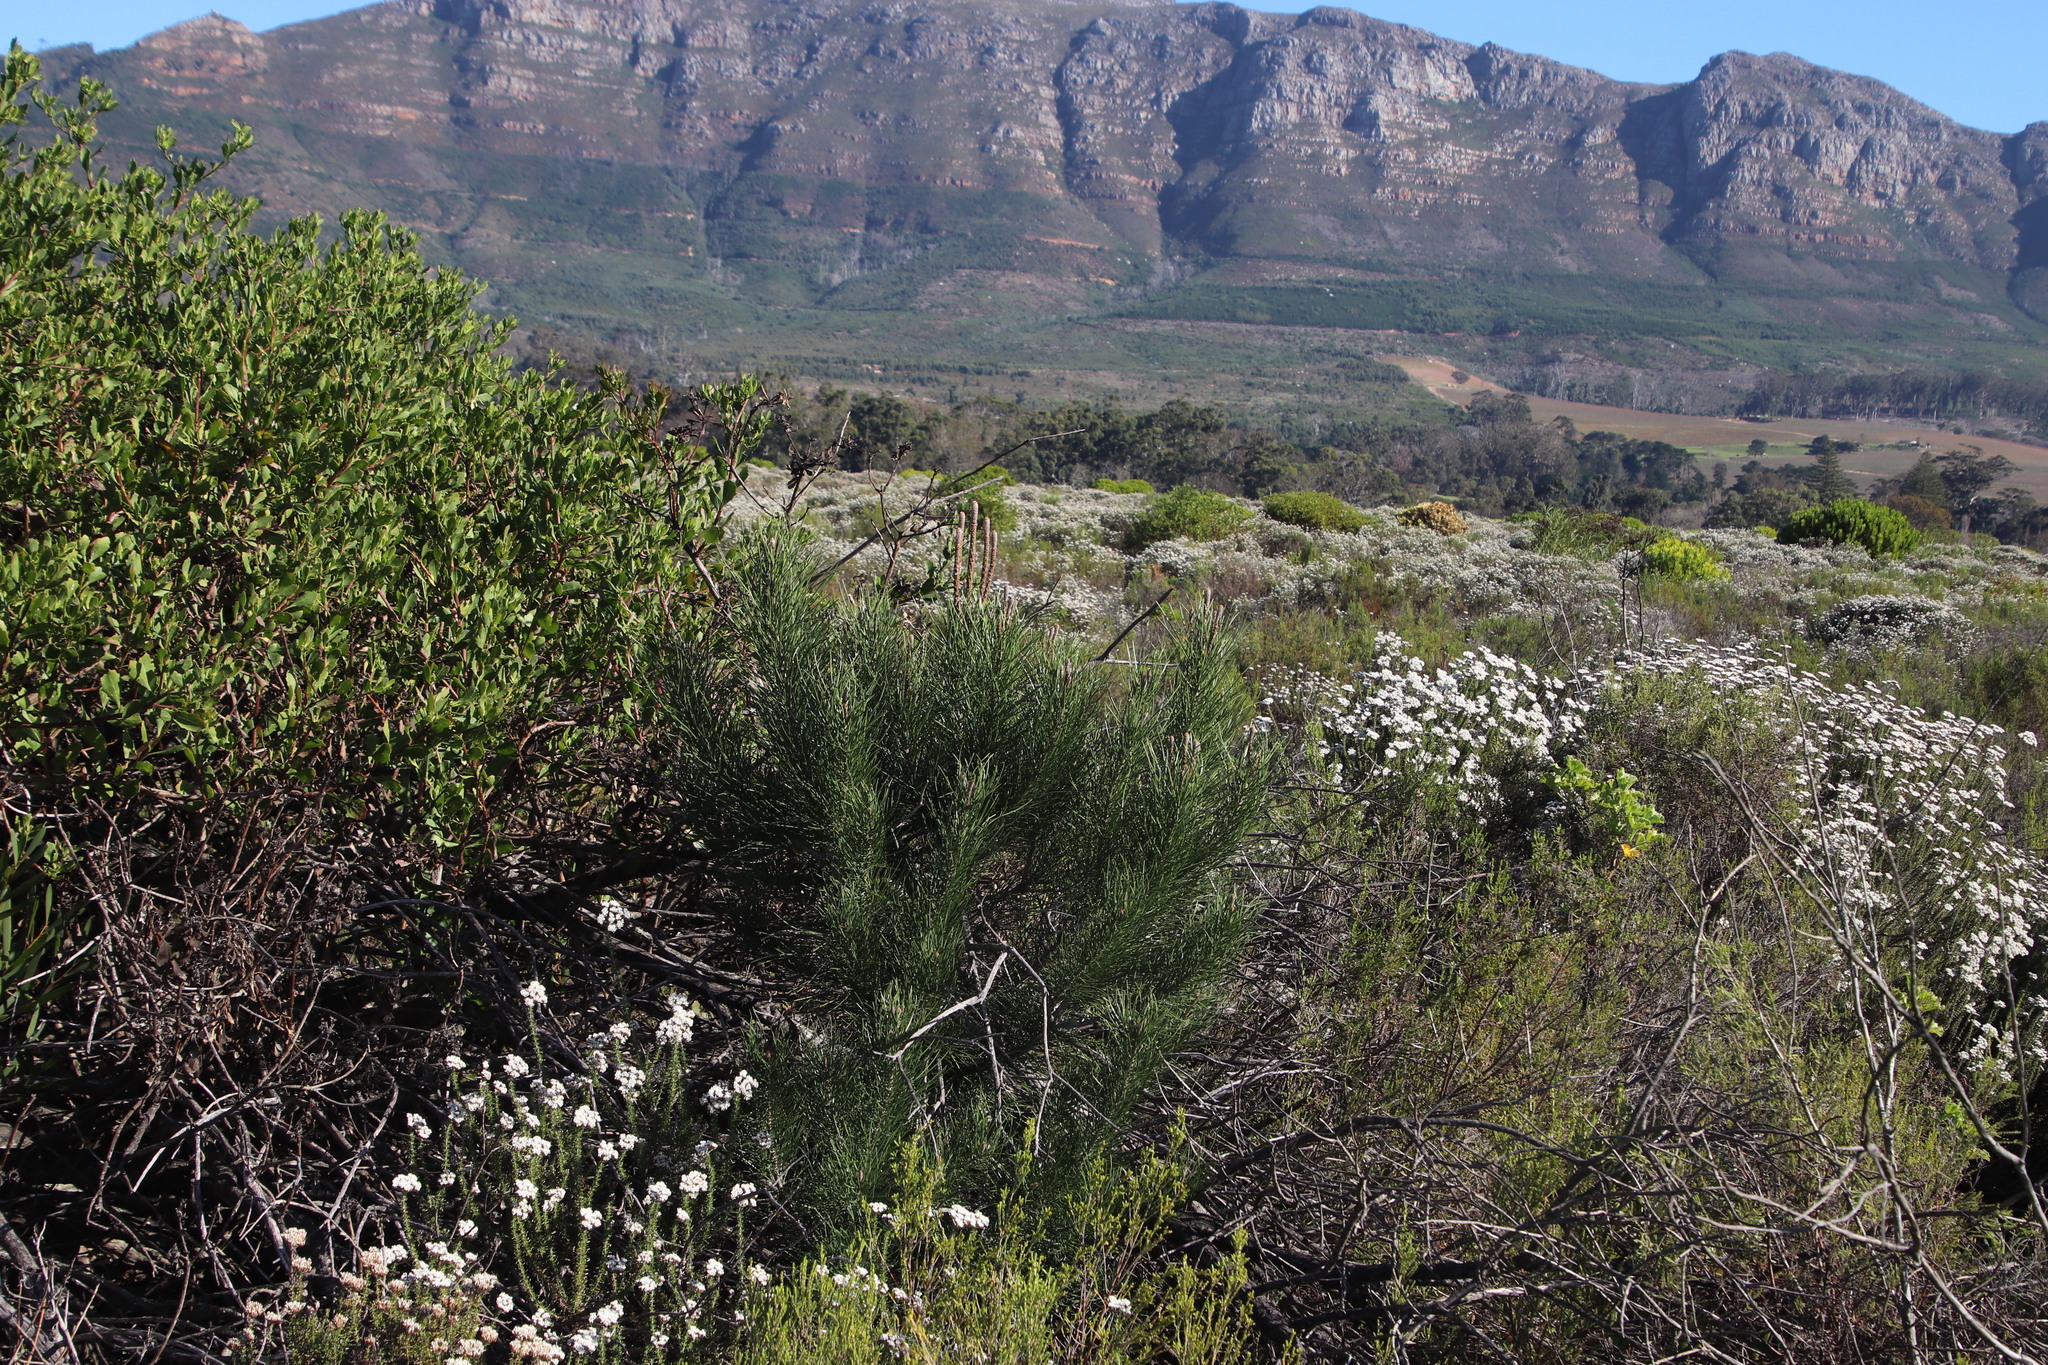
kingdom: Plantae
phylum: Tracheophyta
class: Pinopsida
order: Pinales
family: Pinaceae
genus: Pinus
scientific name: Pinus radiata
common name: Monterey pine
